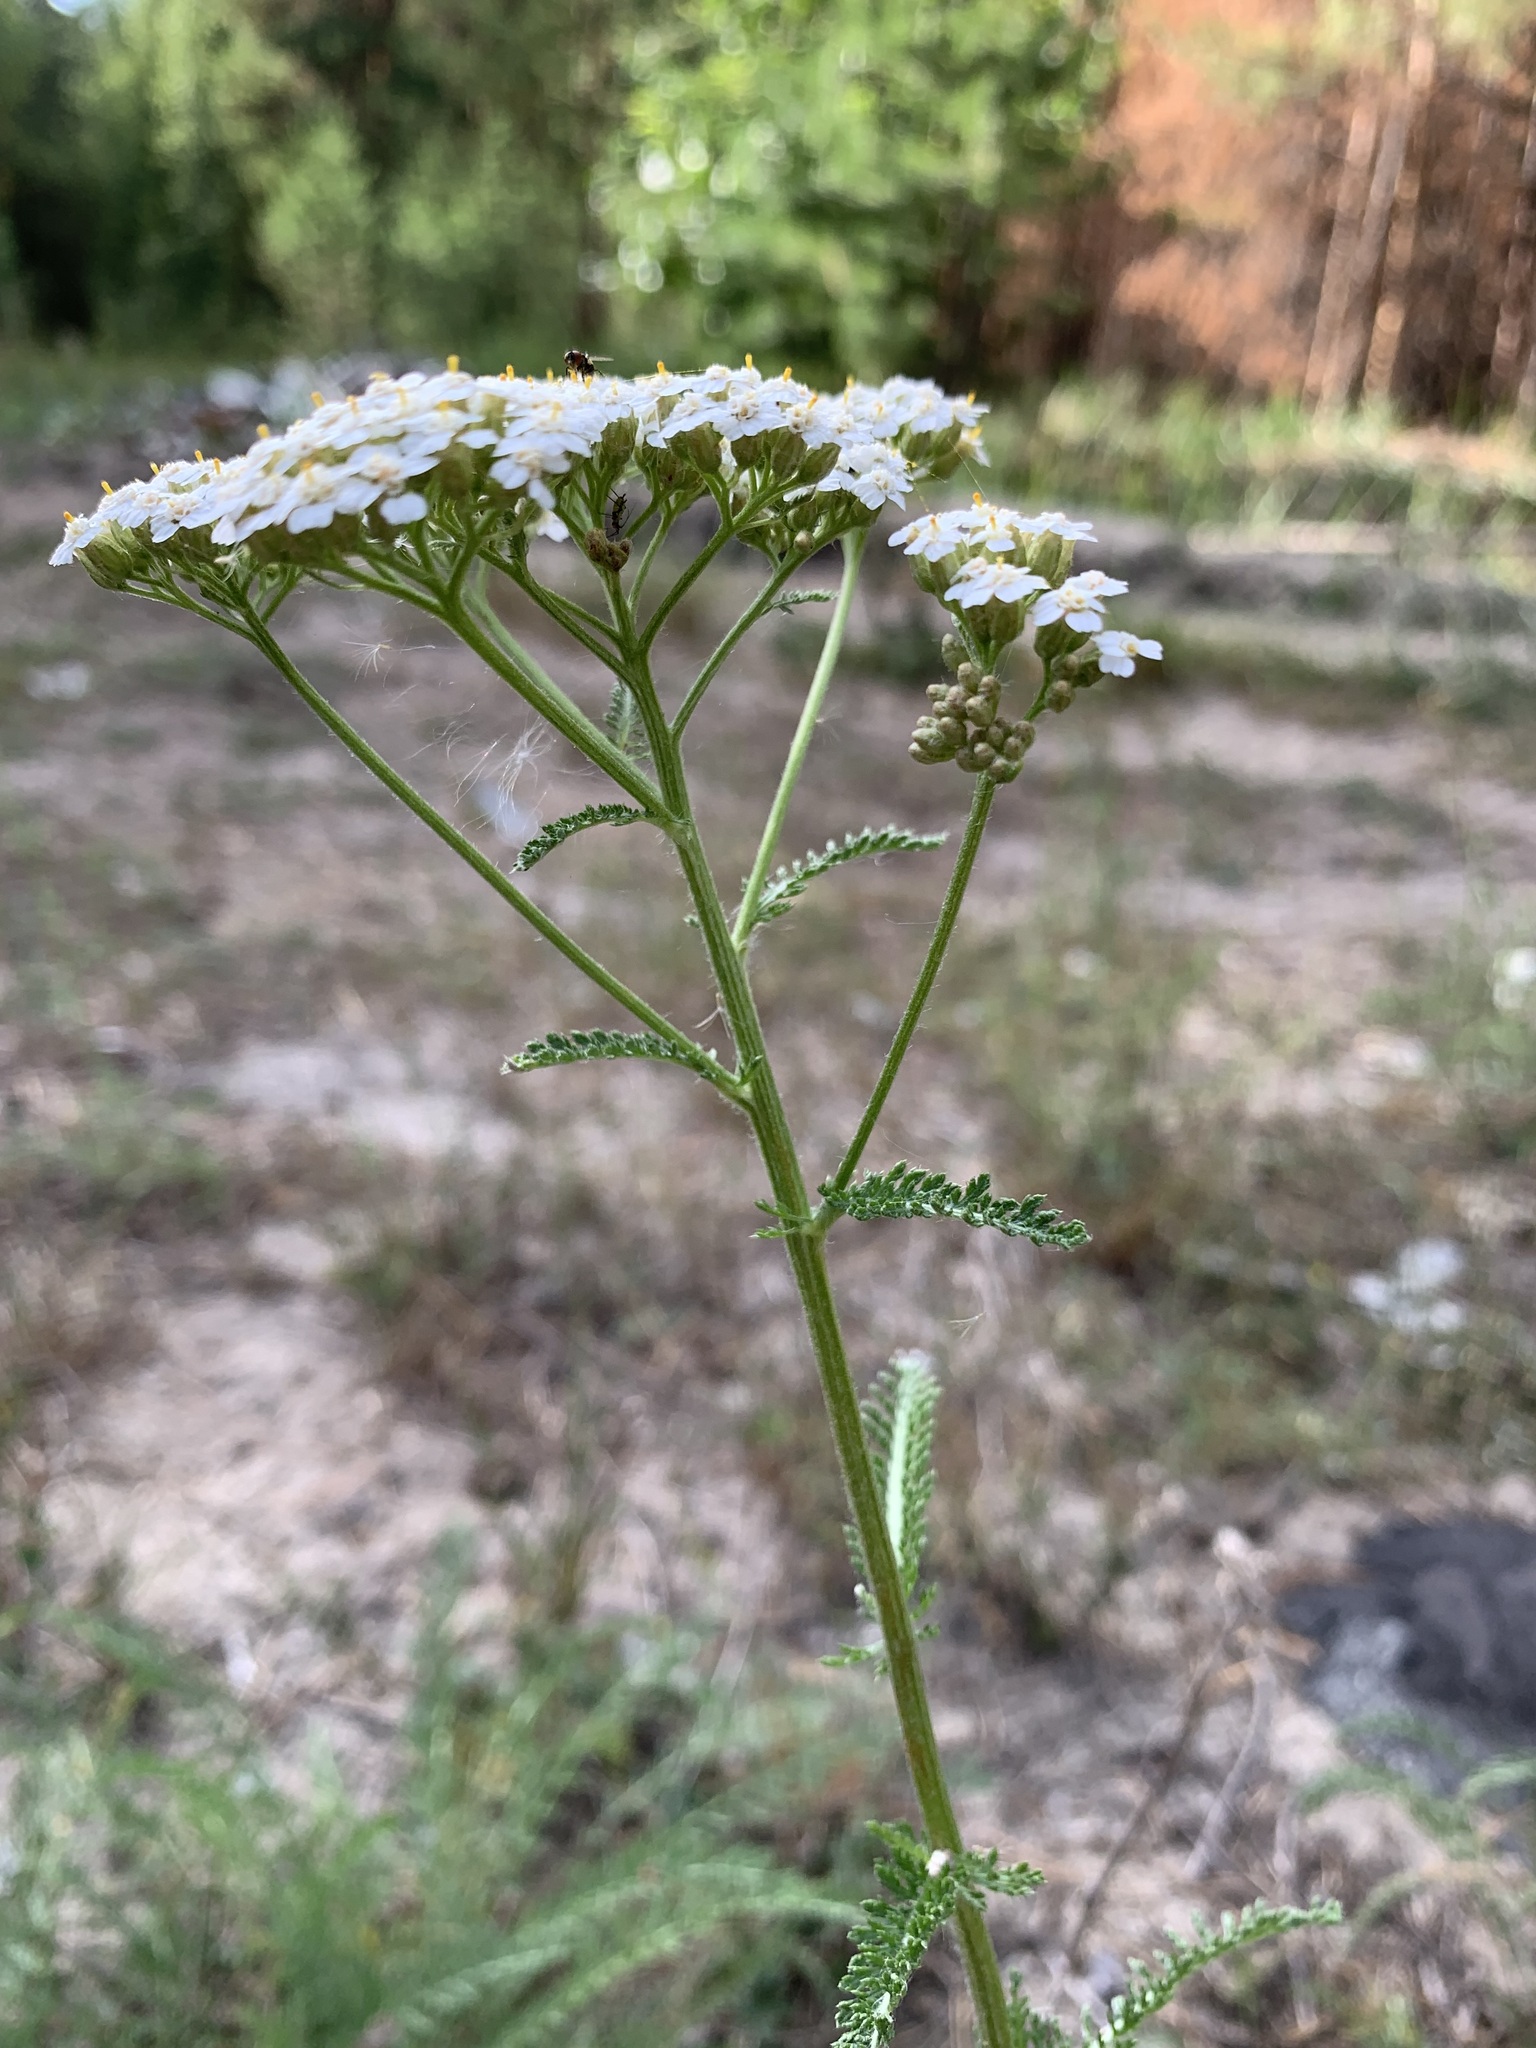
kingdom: Plantae
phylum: Tracheophyta
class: Magnoliopsida
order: Asterales
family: Asteraceae
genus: Achillea
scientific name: Achillea millefolium
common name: Yarrow
